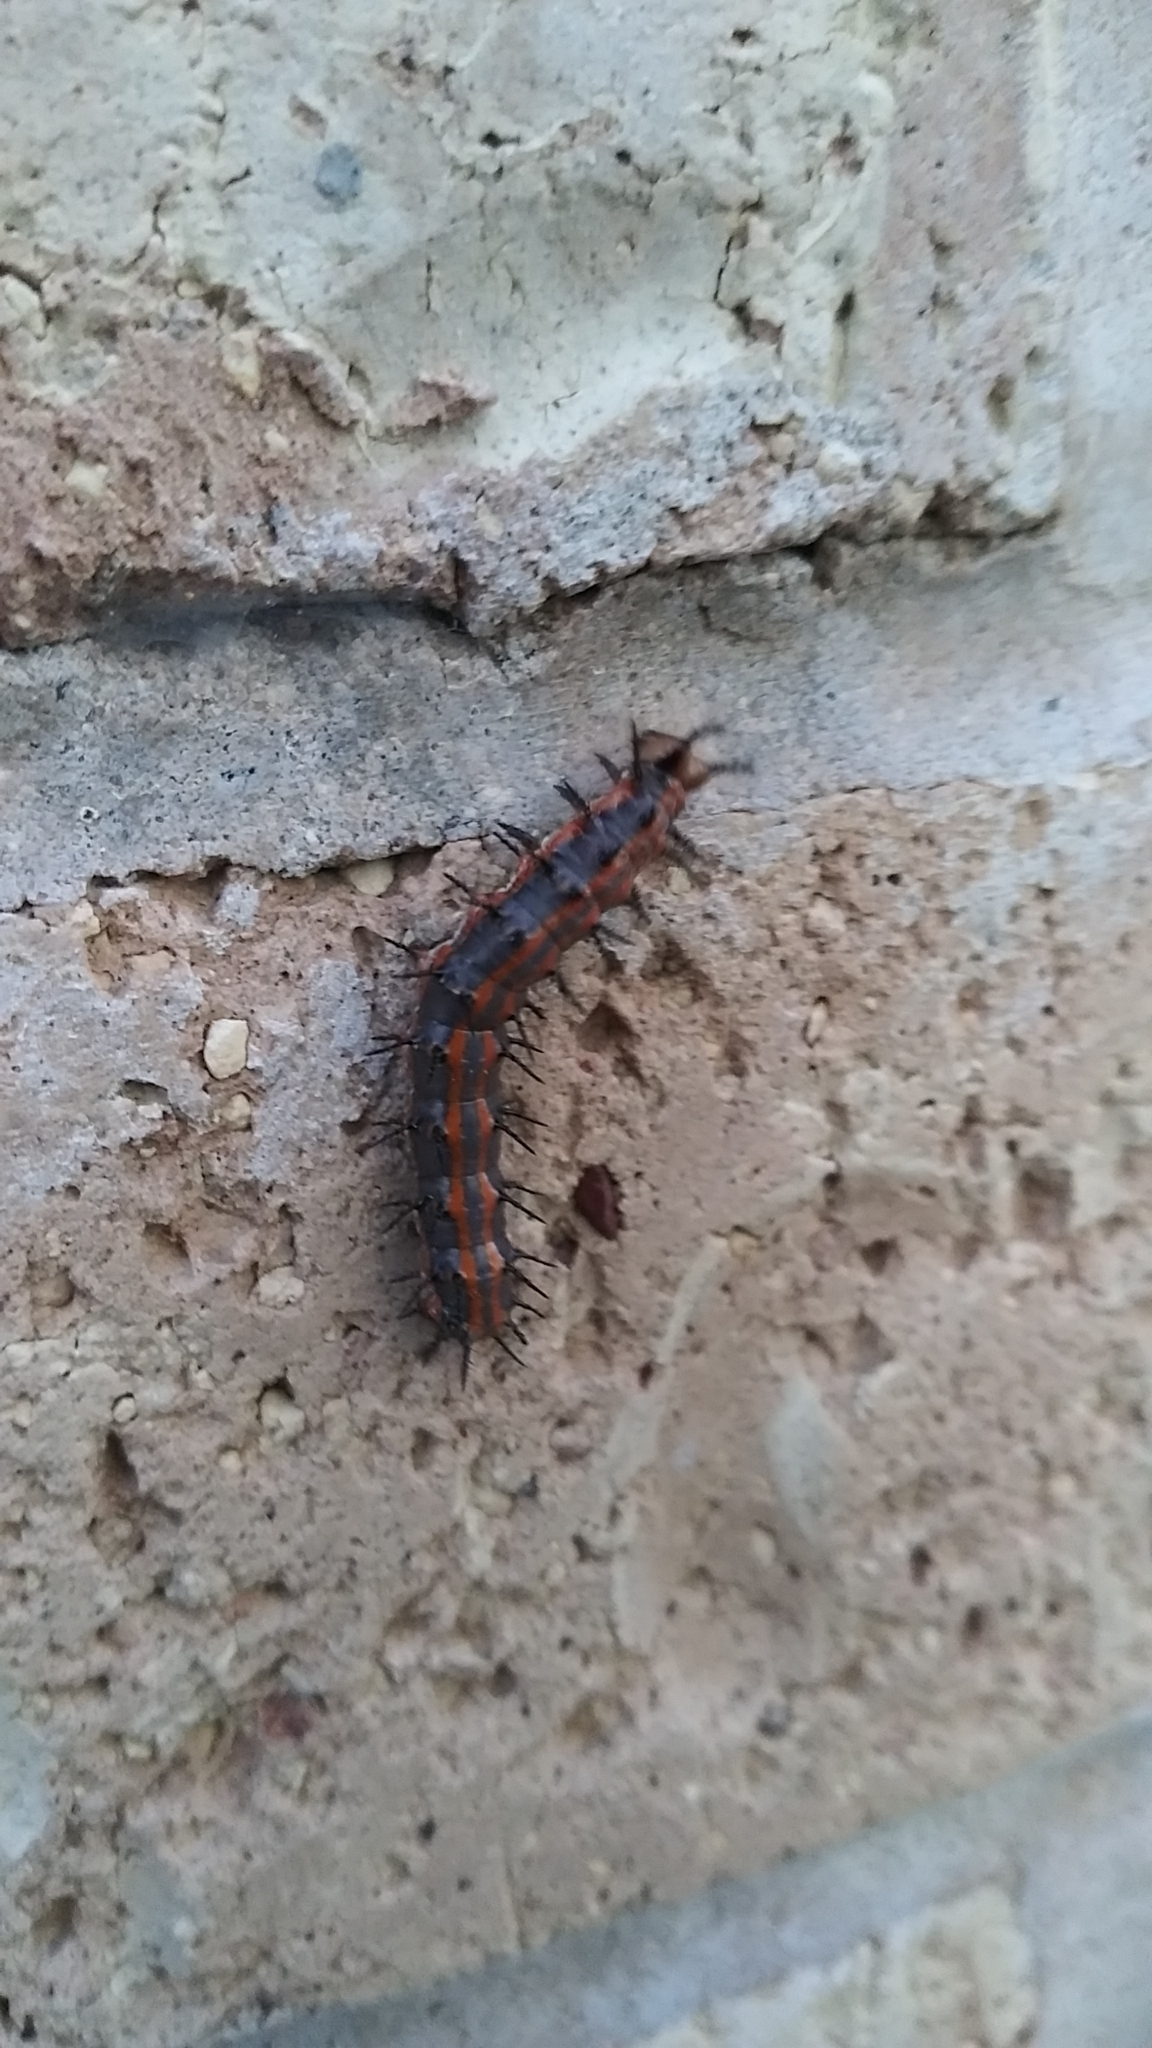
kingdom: Animalia
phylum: Arthropoda
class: Insecta
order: Lepidoptera
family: Nymphalidae
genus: Dione
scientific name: Dione vanillae
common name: Gulf fritillary
